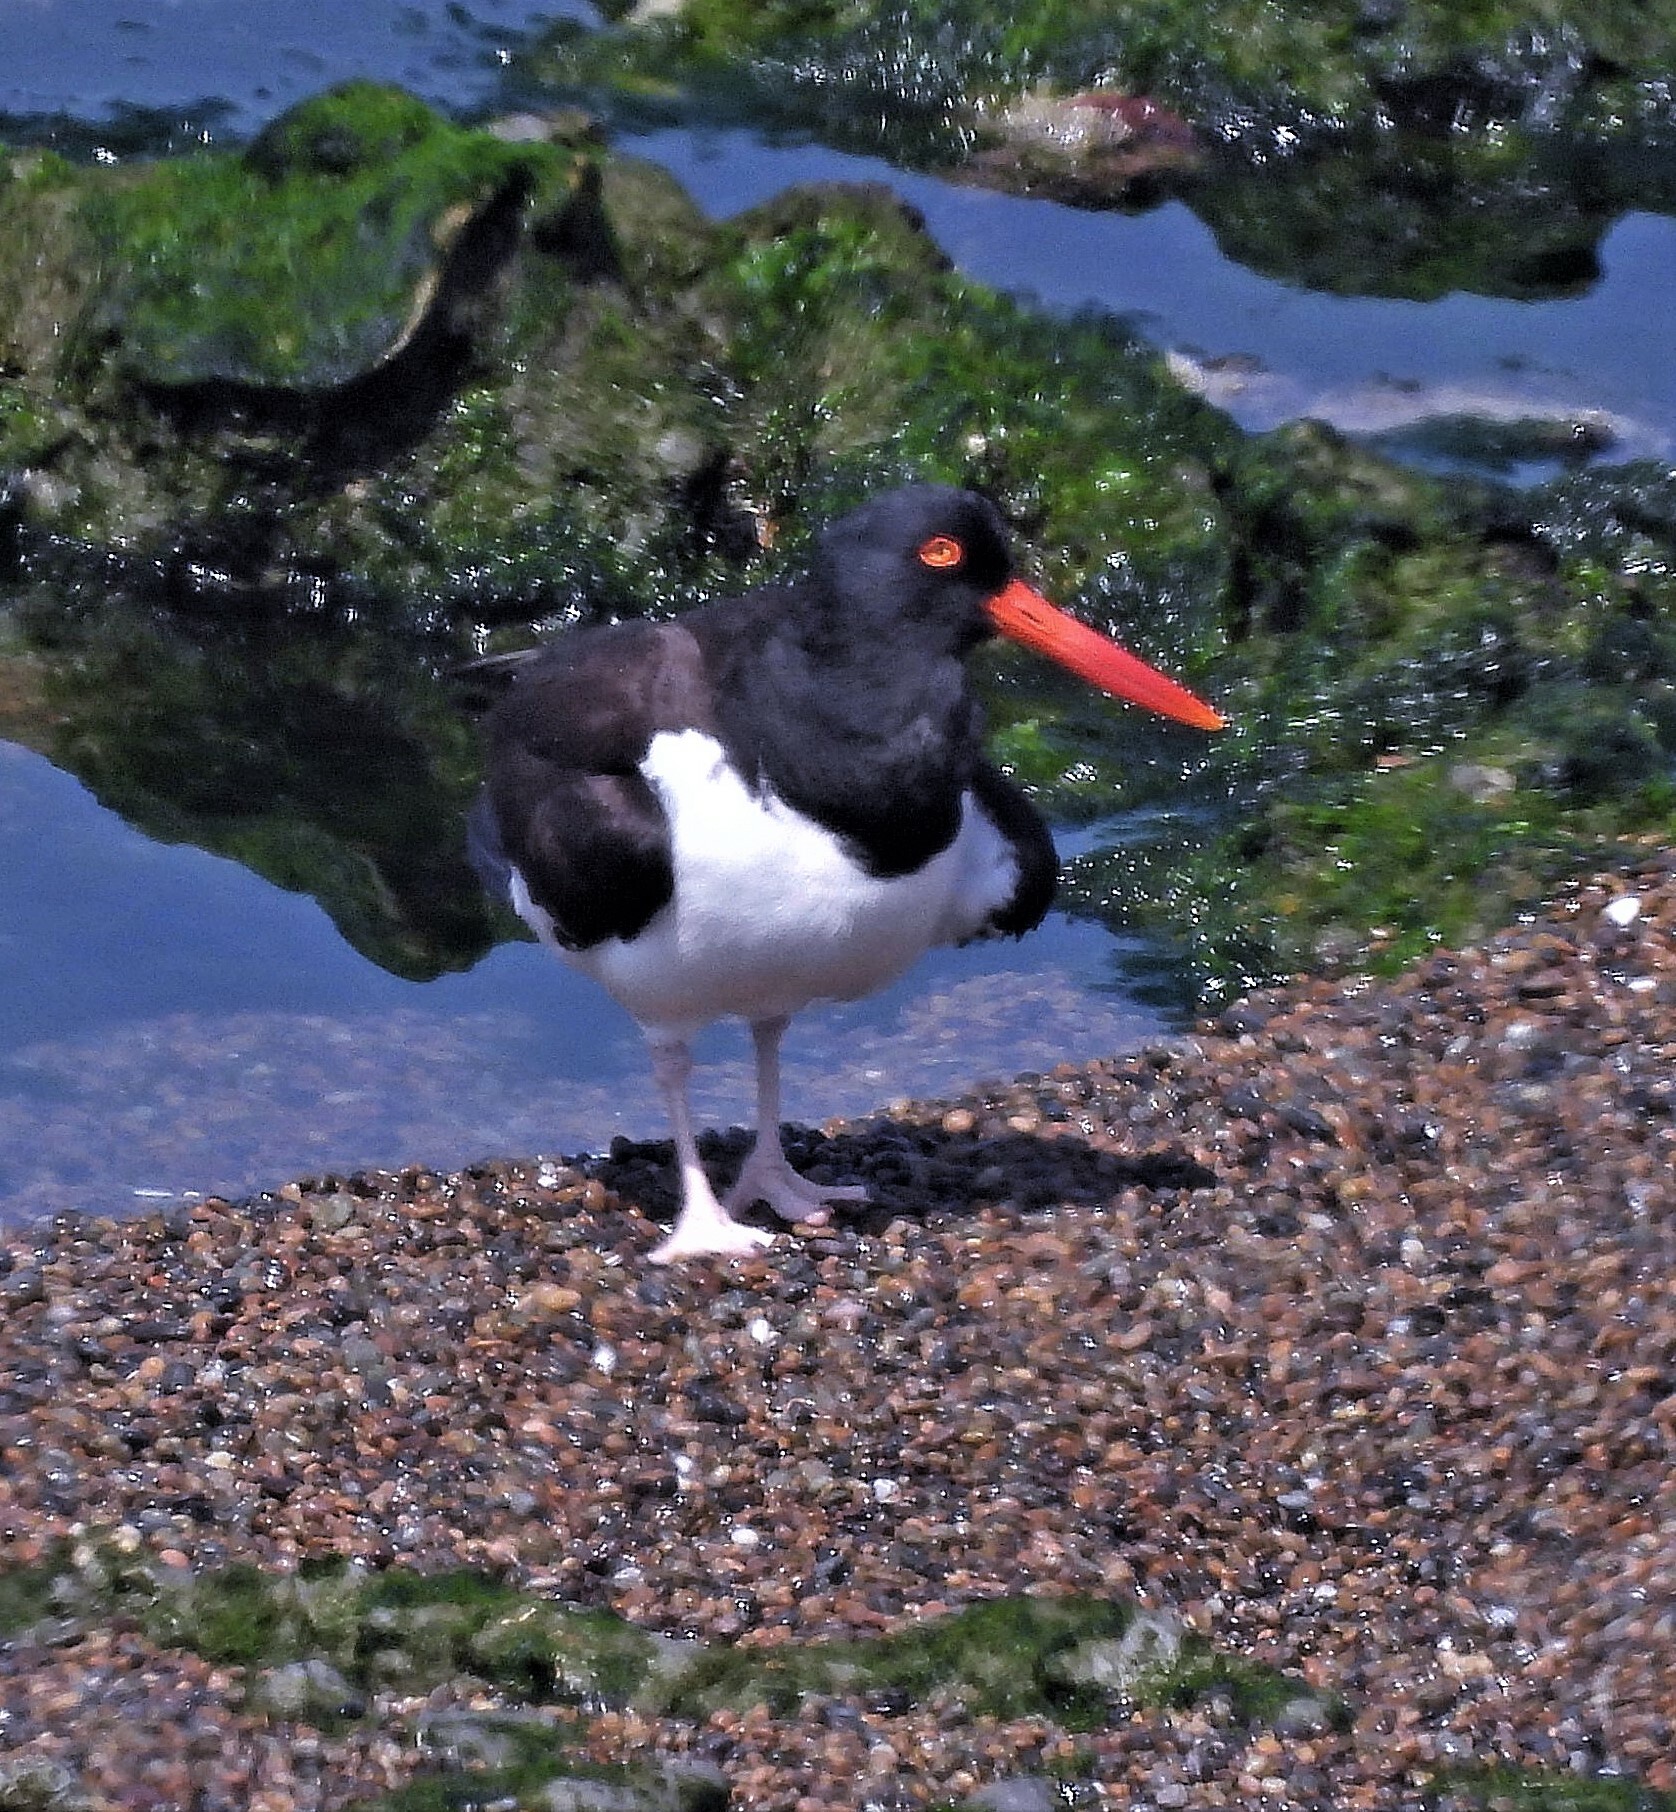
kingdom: Animalia
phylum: Chordata
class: Aves
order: Charadriiformes
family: Haematopodidae
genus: Haematopus
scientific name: Haematopus palliatus
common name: American oystercatcher
